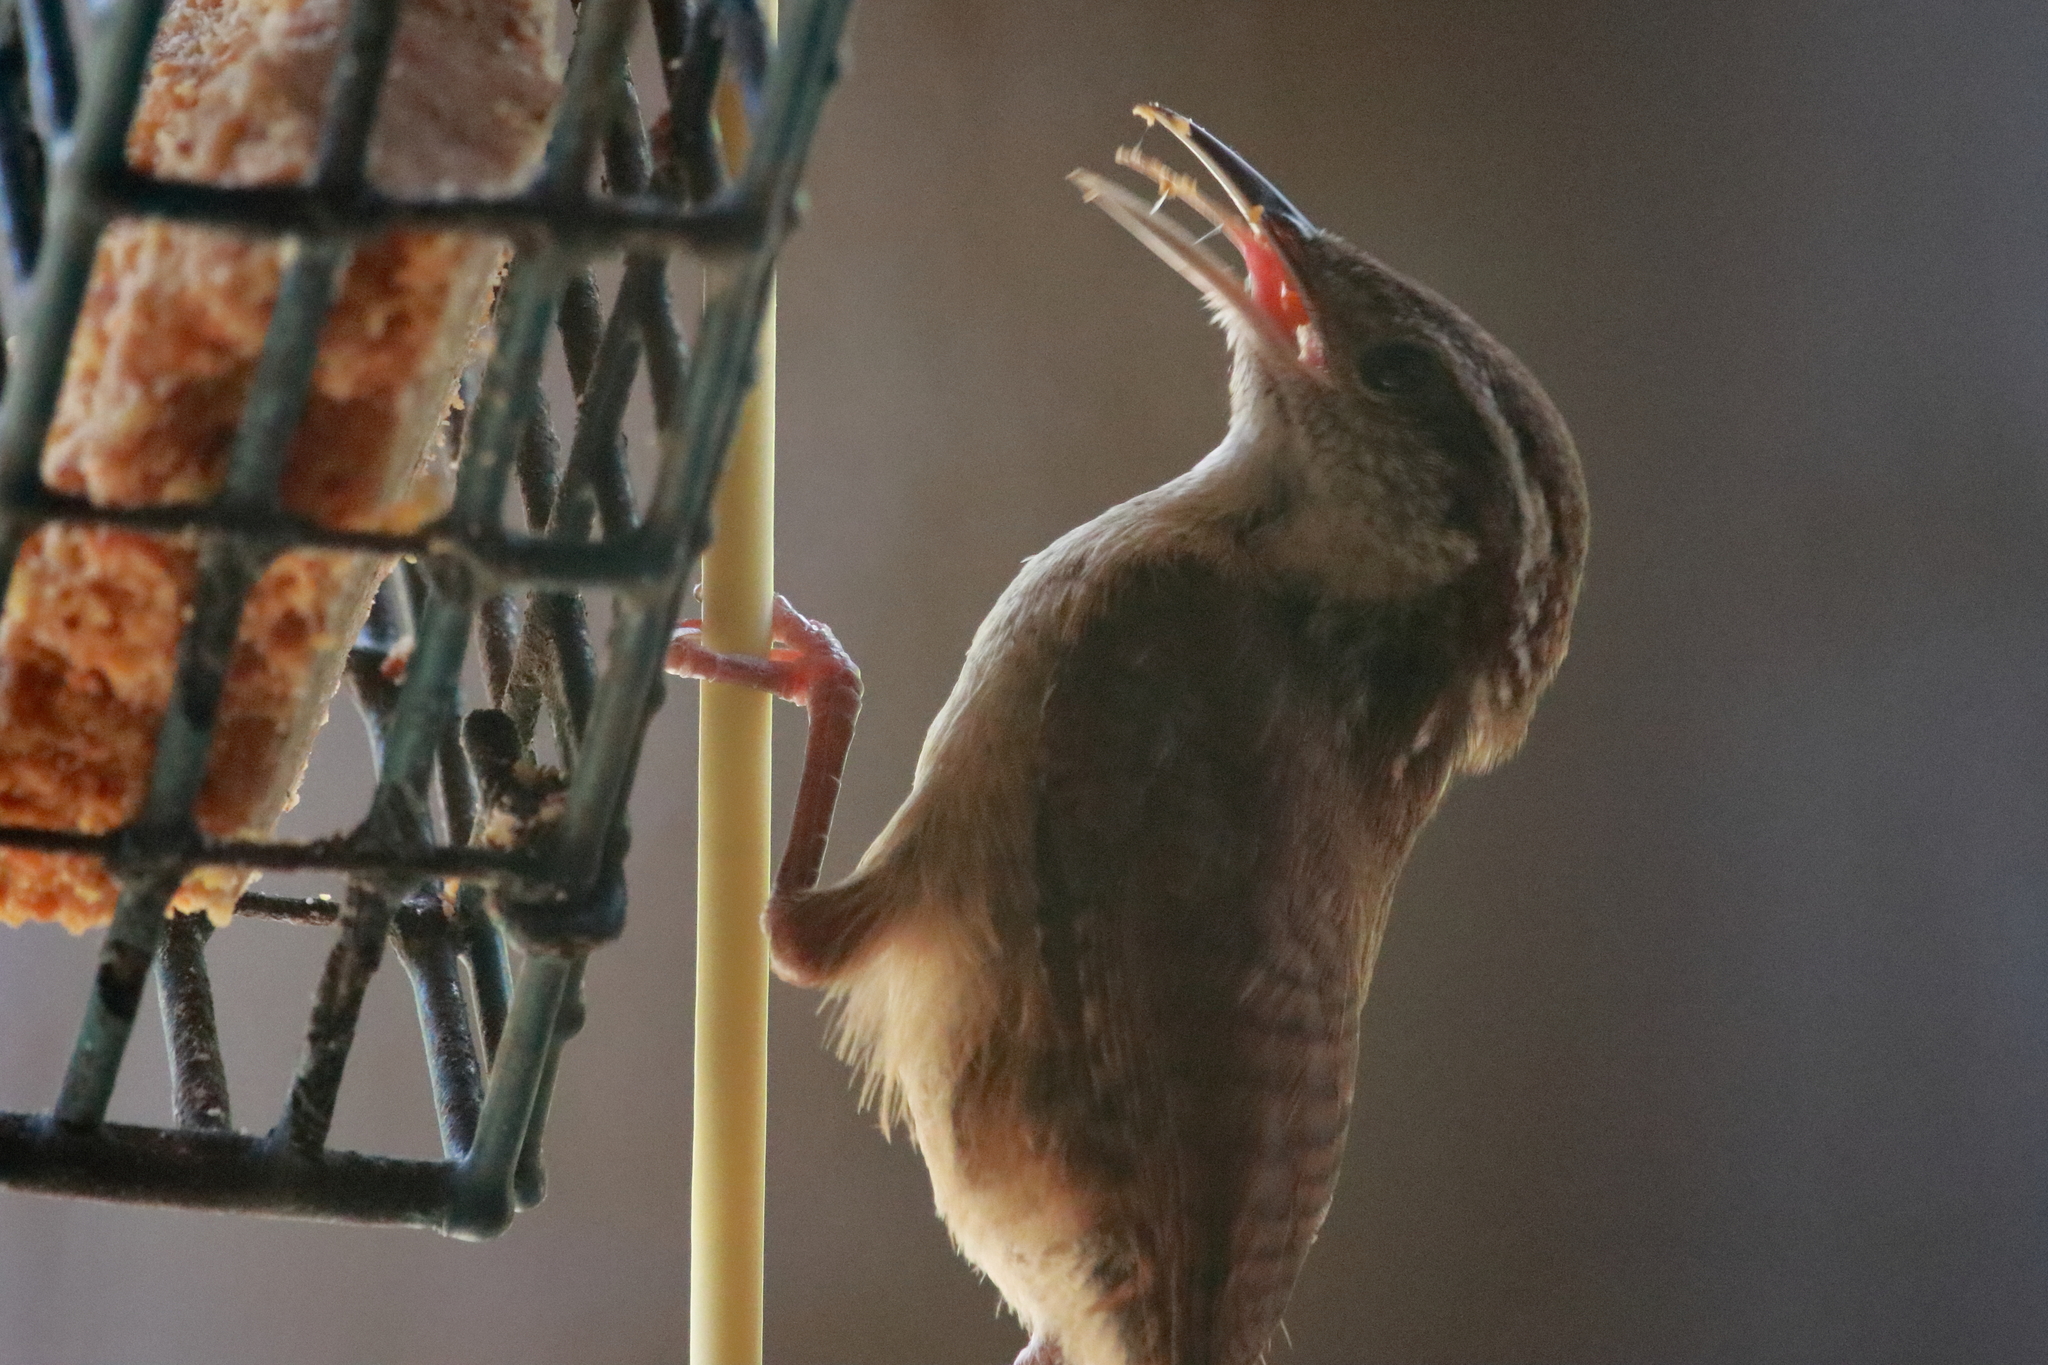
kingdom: Animalia
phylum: Chordata
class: Aves
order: Passeriformes
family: Troglodytidae
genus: Thryothorus
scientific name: Thryothorus ludovicianus
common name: Carolina wren
